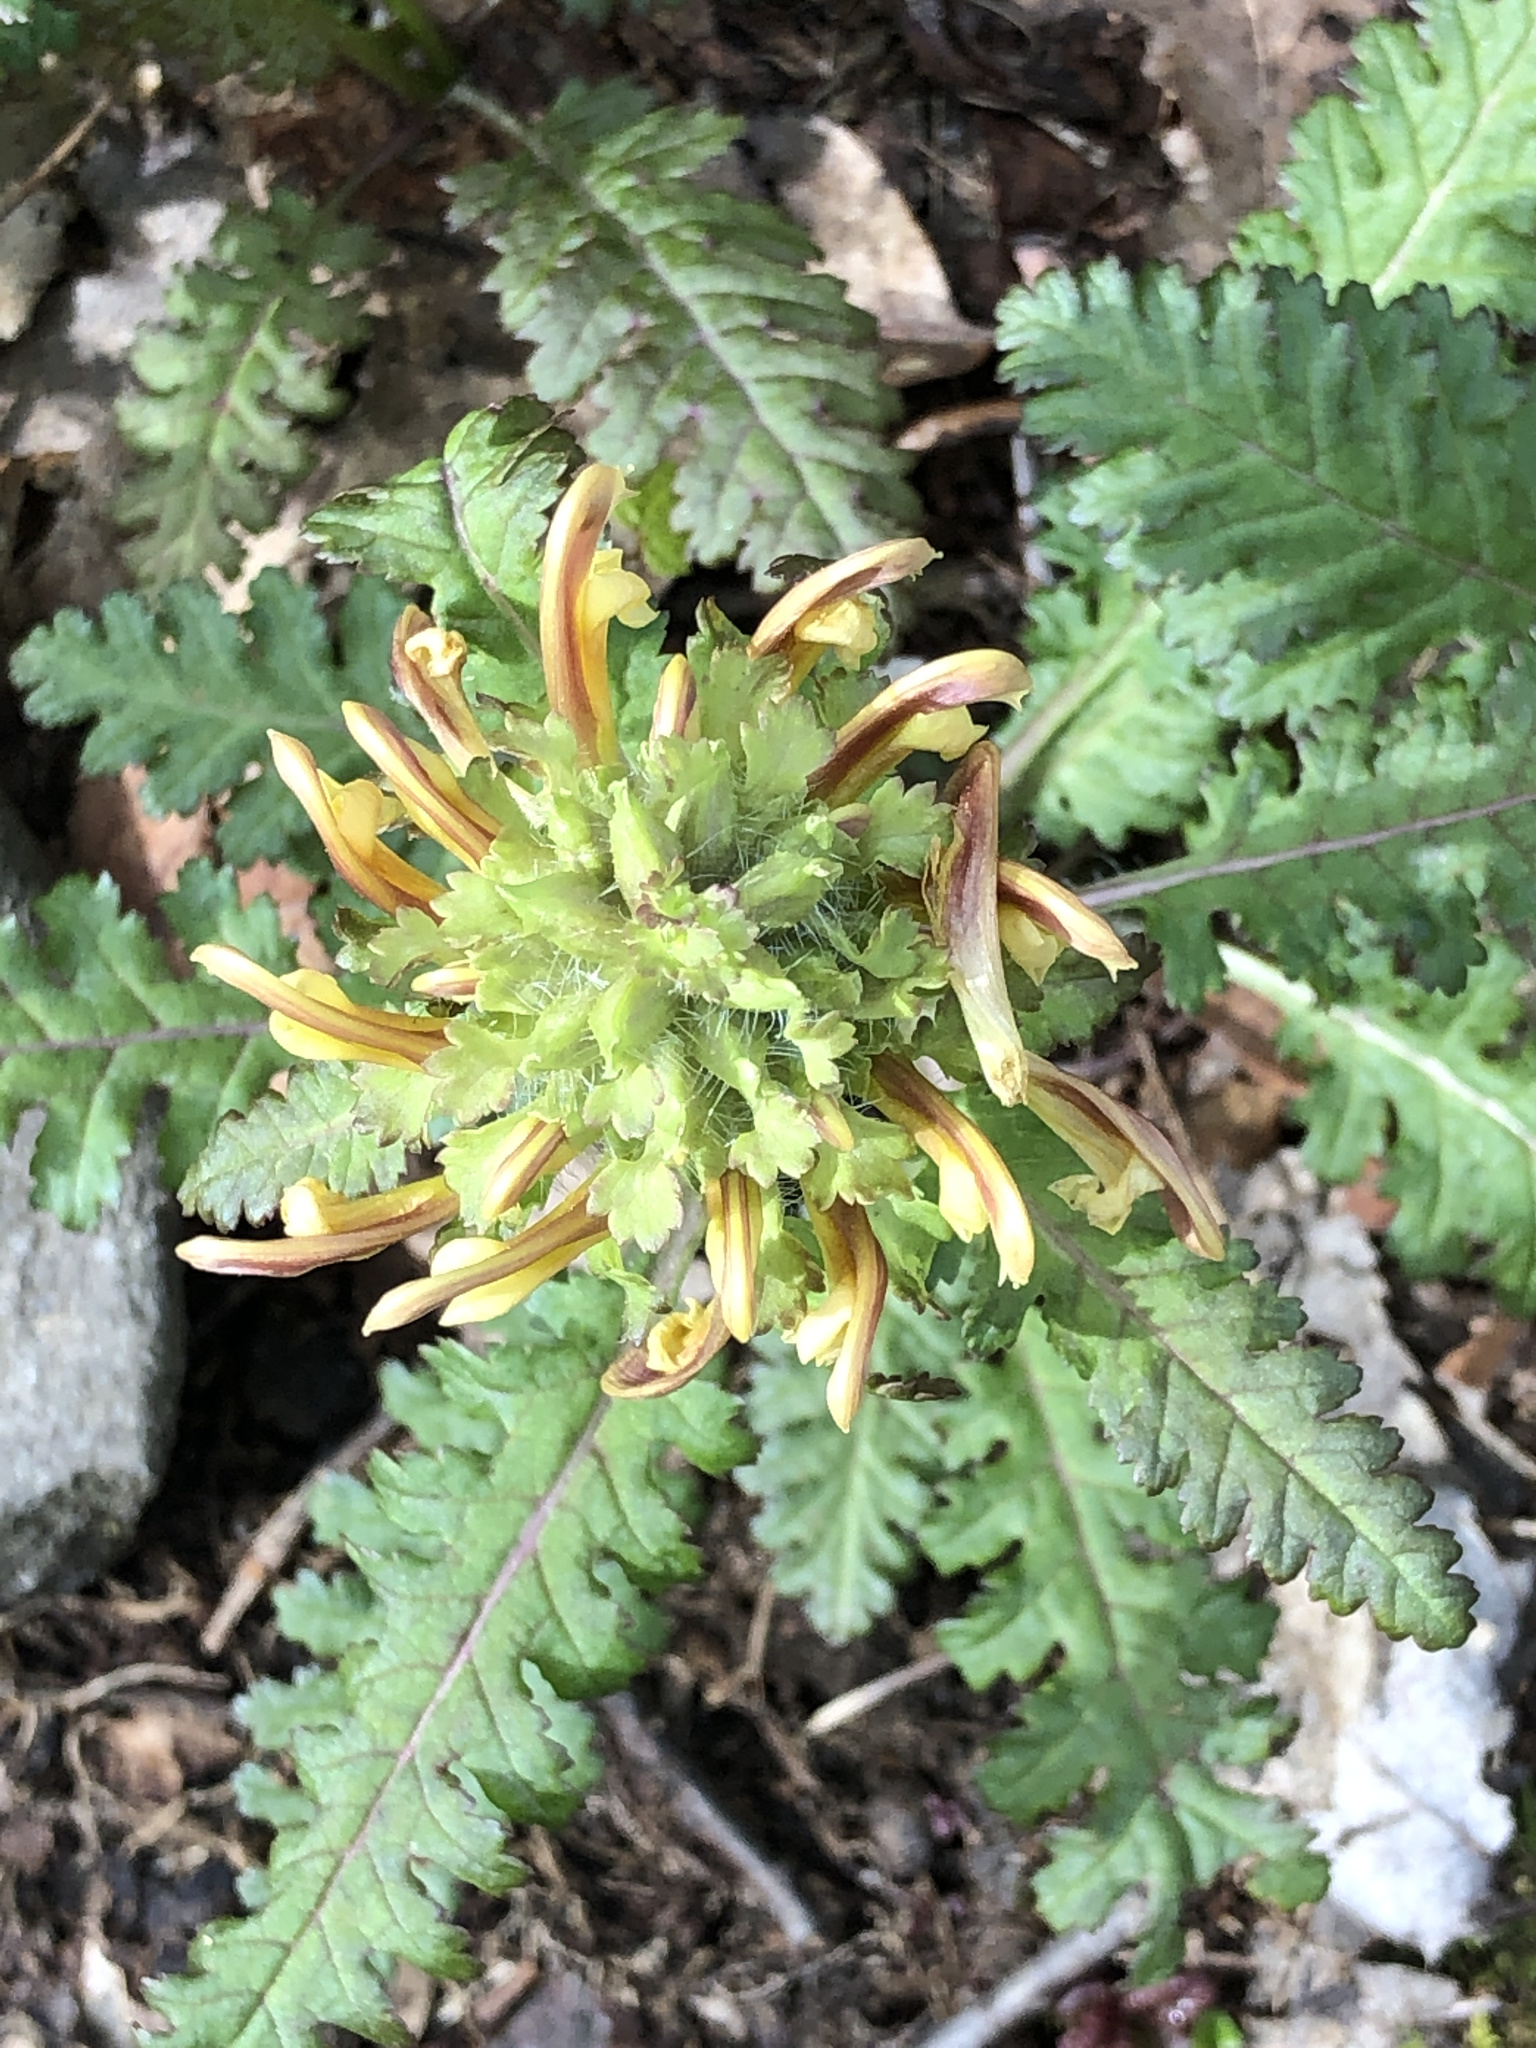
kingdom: Plantae
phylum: Tracheophyta
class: Magnoliopsida
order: Lamiales
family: Orobanchaceae
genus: Pedicularis
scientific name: Pedicularis canadensis
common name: Early lousewort
